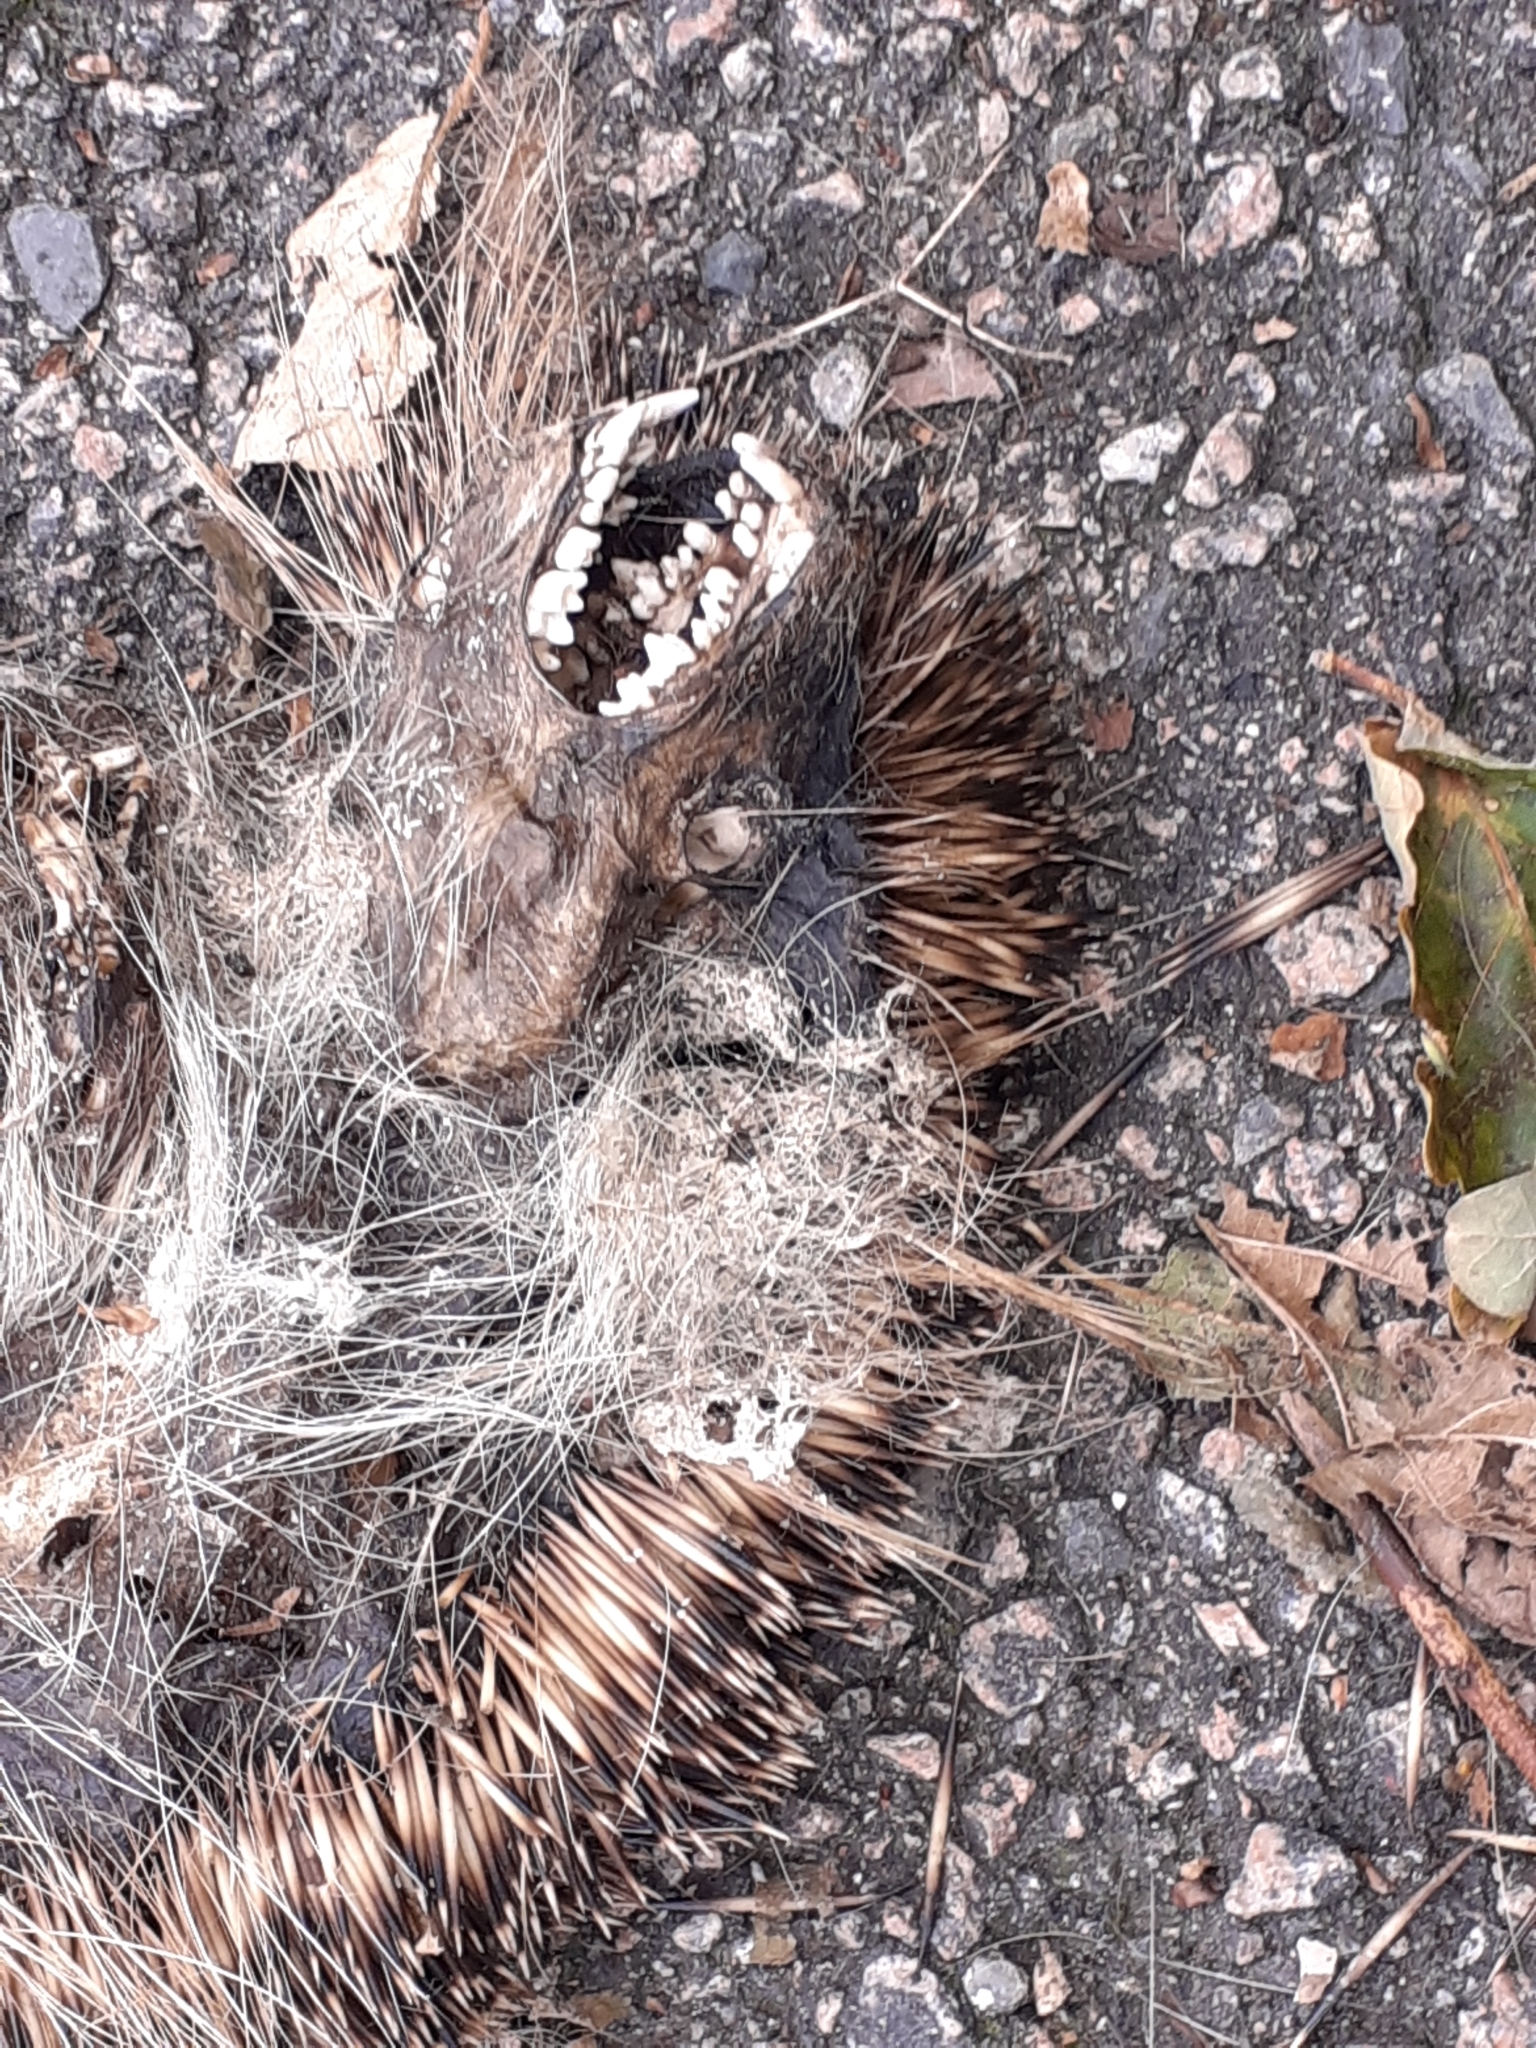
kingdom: Animalia
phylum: Chordata
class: Mammalia
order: Erinaceomorpha
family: Erinaceidae
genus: Erinaceus
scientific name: Erinaceus europaeus
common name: West european hedgehog
